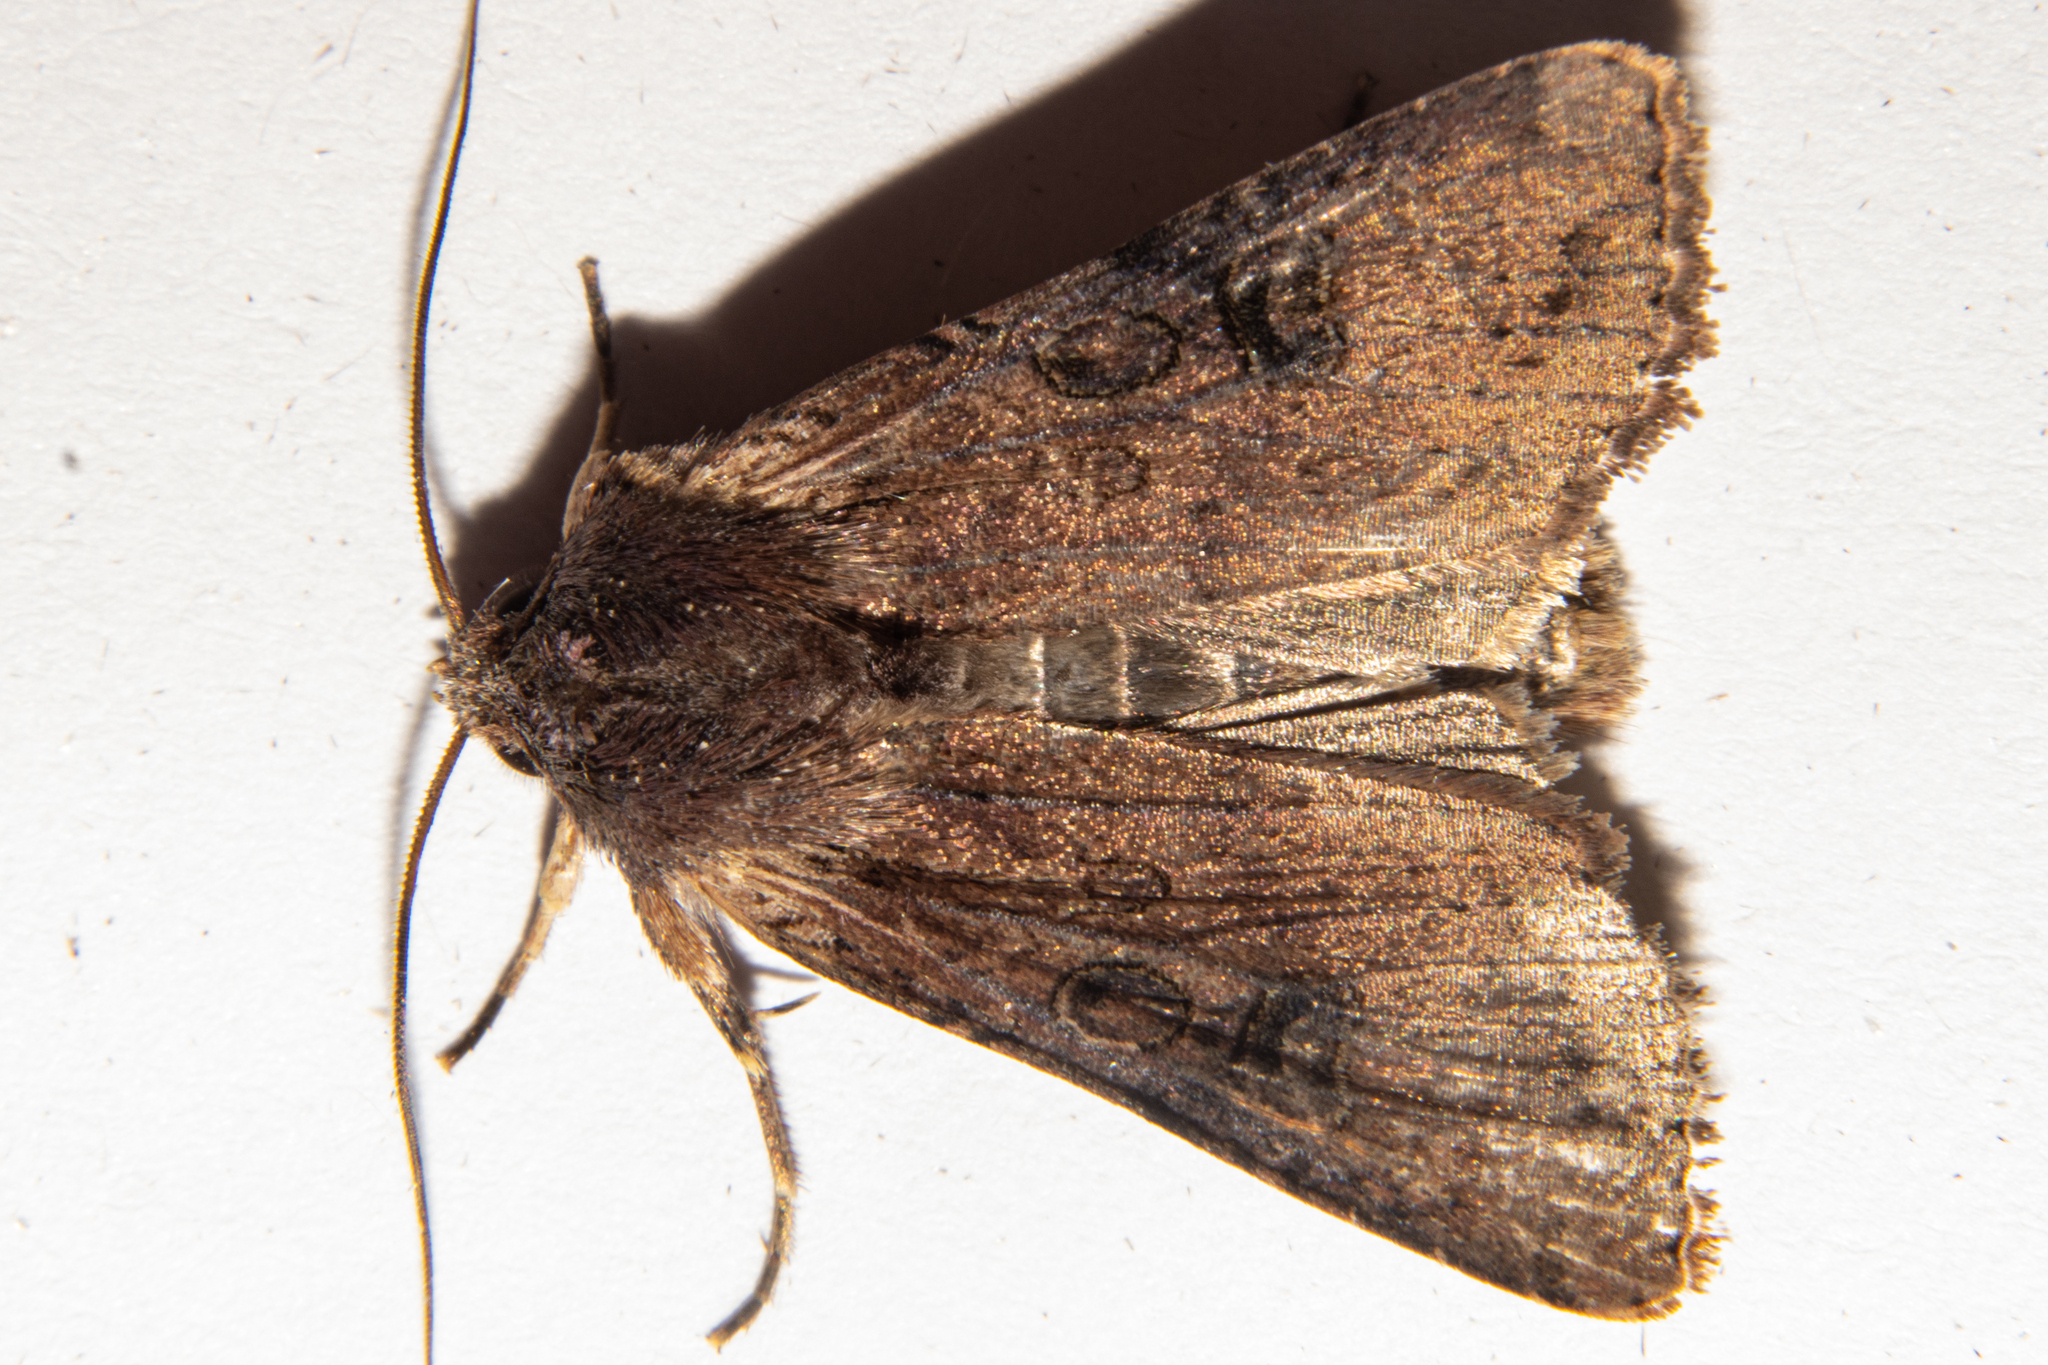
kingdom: Animalia
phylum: Arthropoda
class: Insecta
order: Lepidoptera
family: Noctuidae
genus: Ichneutica
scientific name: Ichneutica omoplaca
